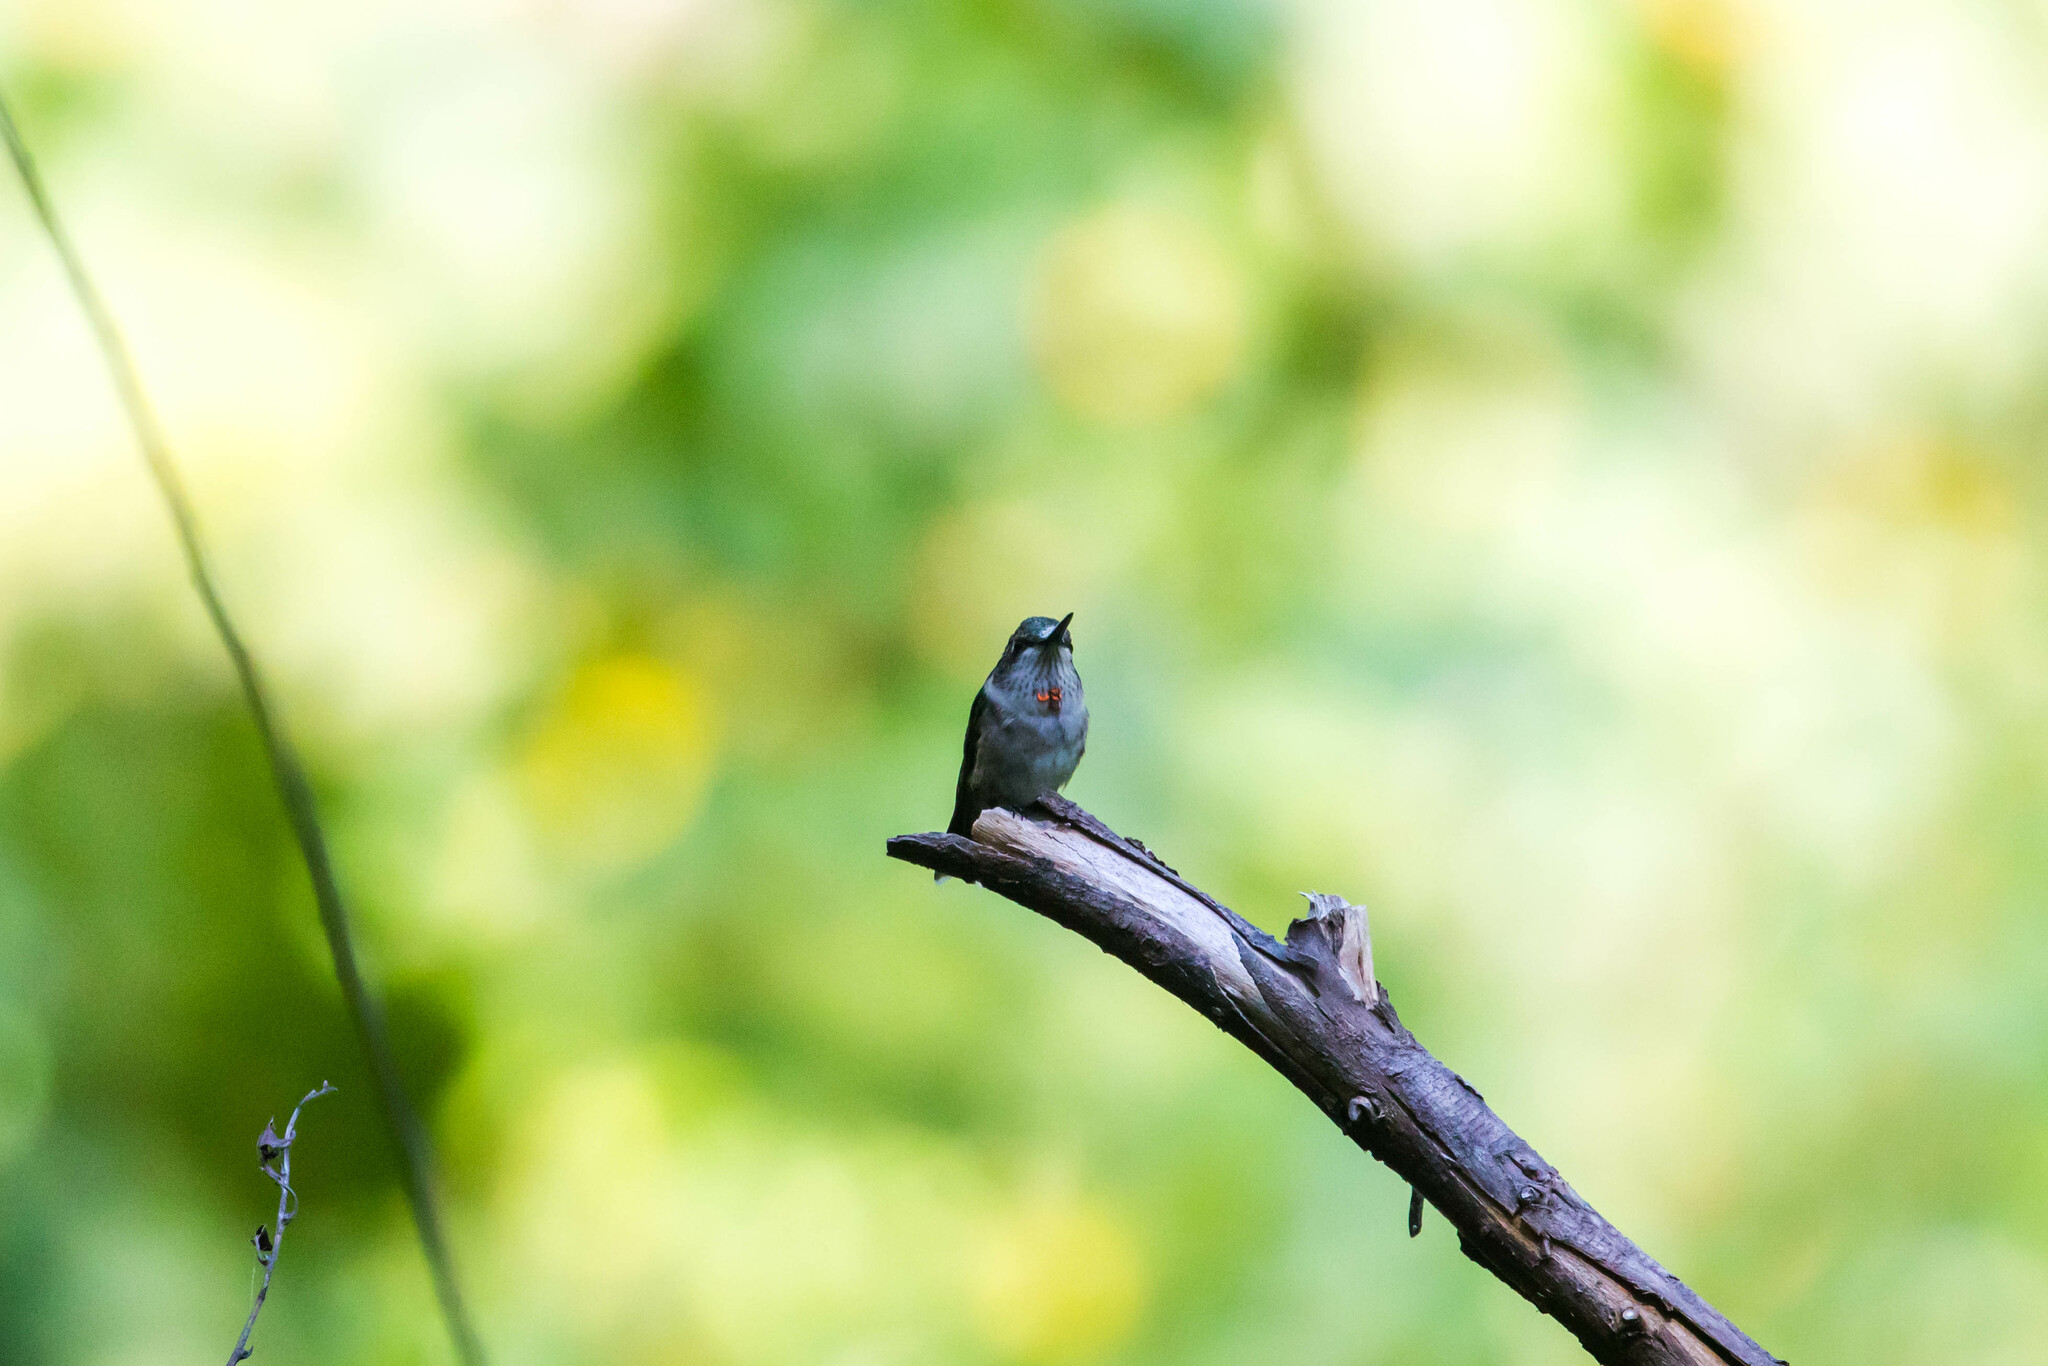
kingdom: Animalia
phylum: Chordata
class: Aves
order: Apodiformes
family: Trochilidae
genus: Archilochus
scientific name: Archilochus colubris
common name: Ruby-throated hummingbird
